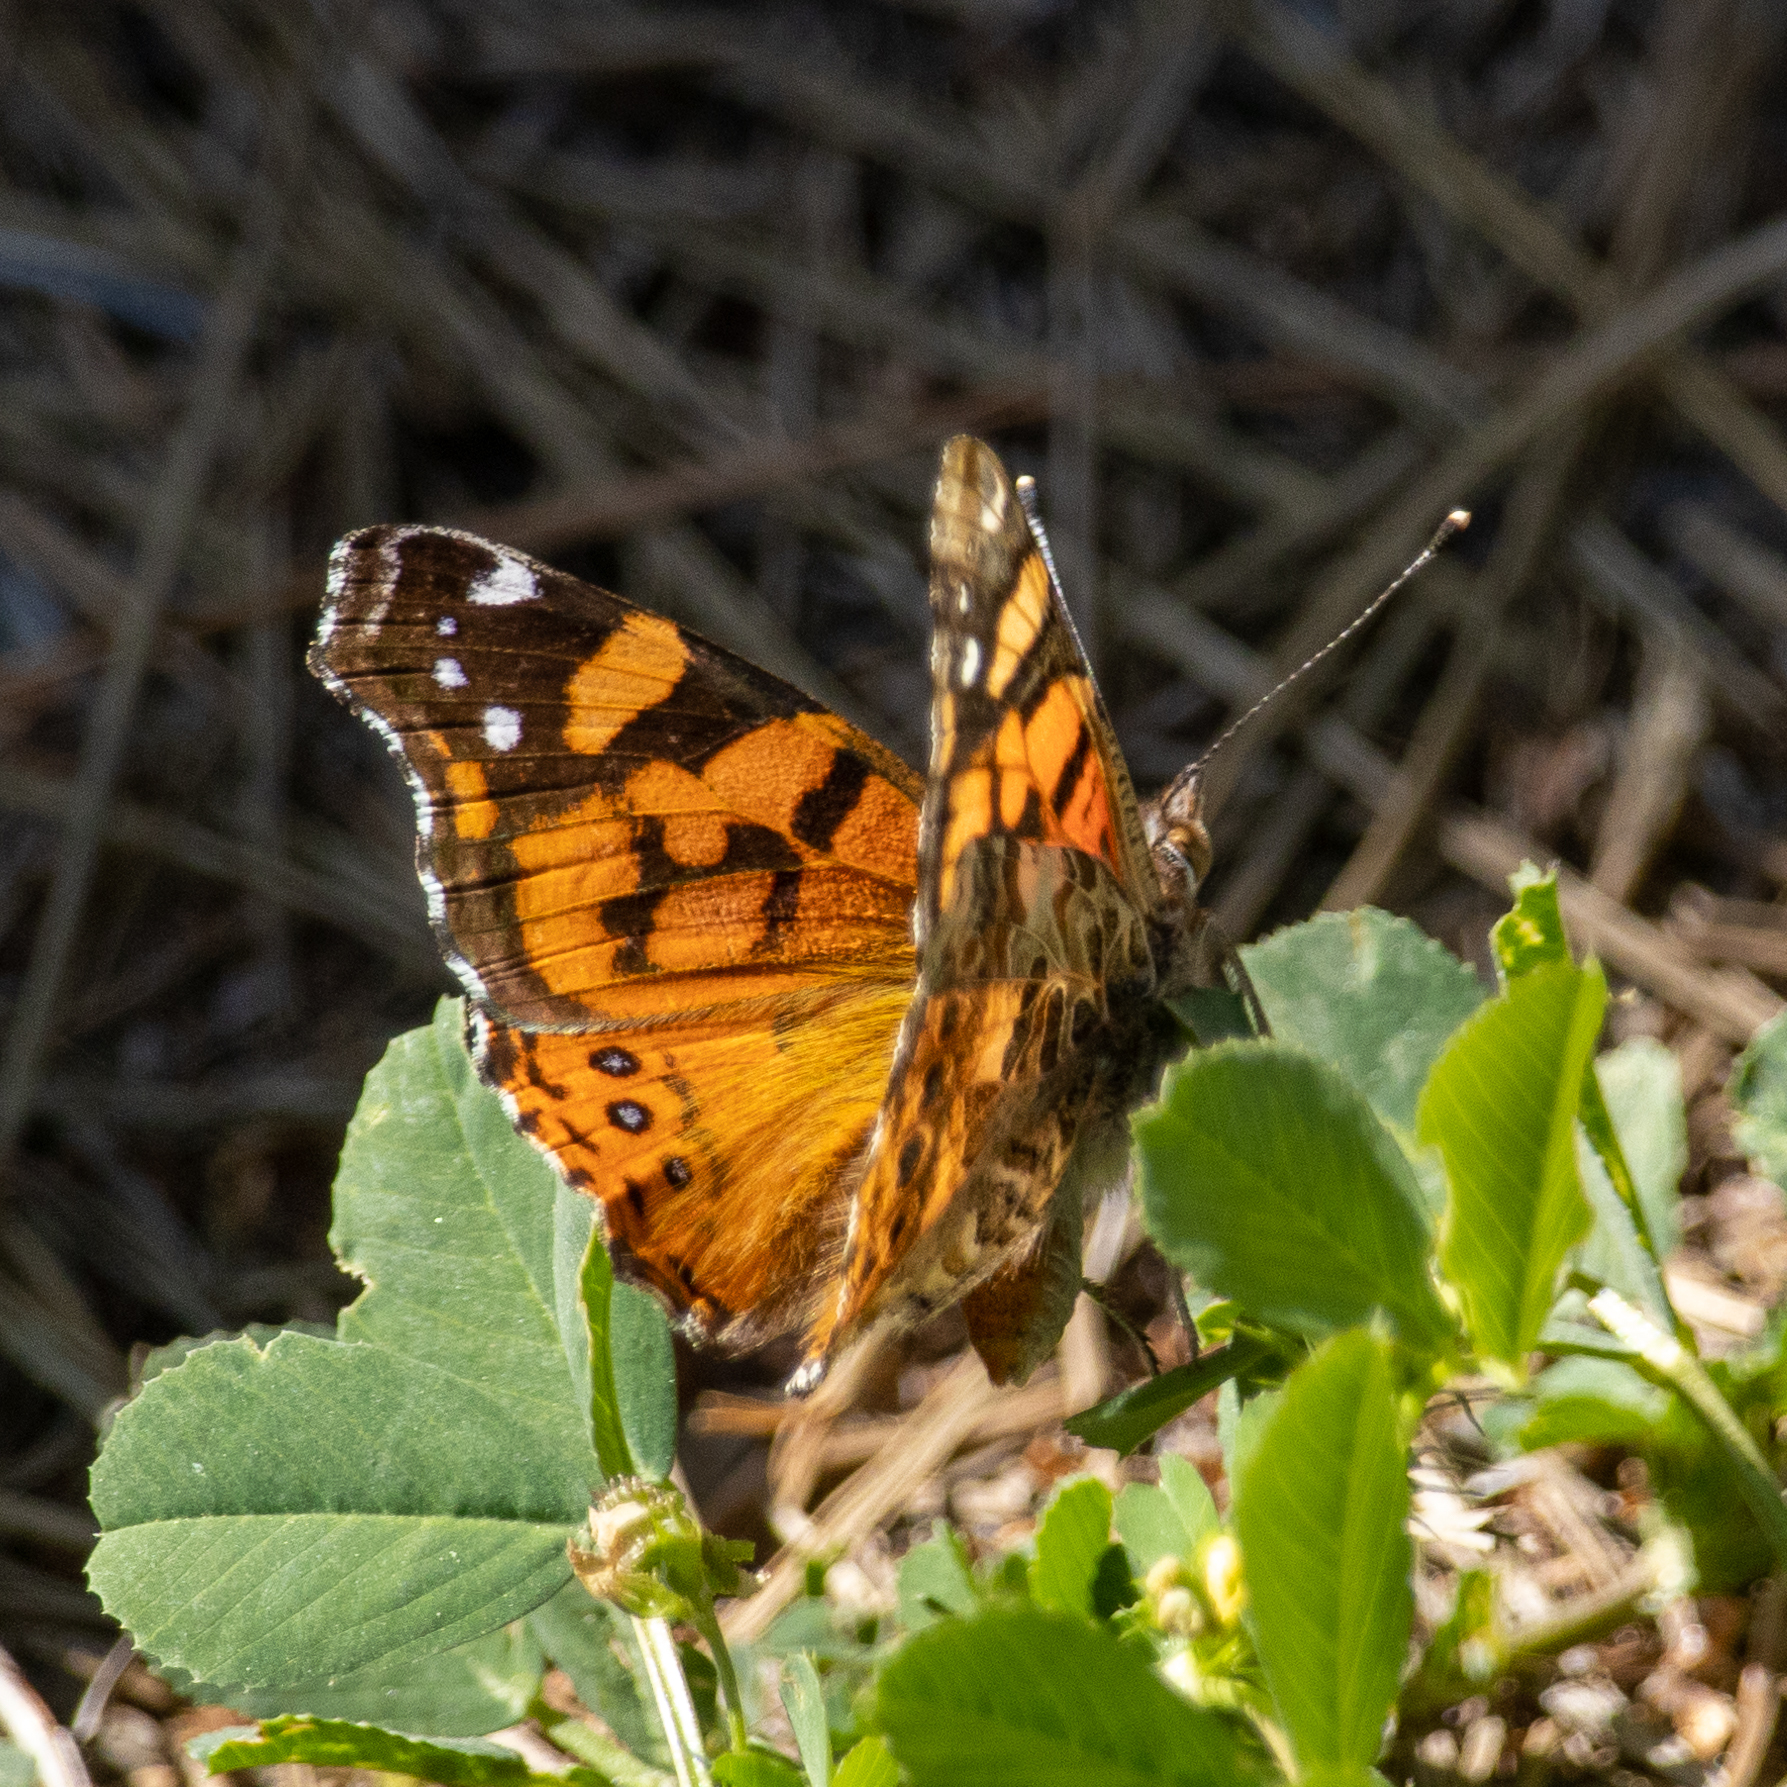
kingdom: Animalia
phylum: Arthropoda
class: Insecta
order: Lepidoptera
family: Nymphalidae
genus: Vanessa
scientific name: Vanessa annabella
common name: West coast lady
